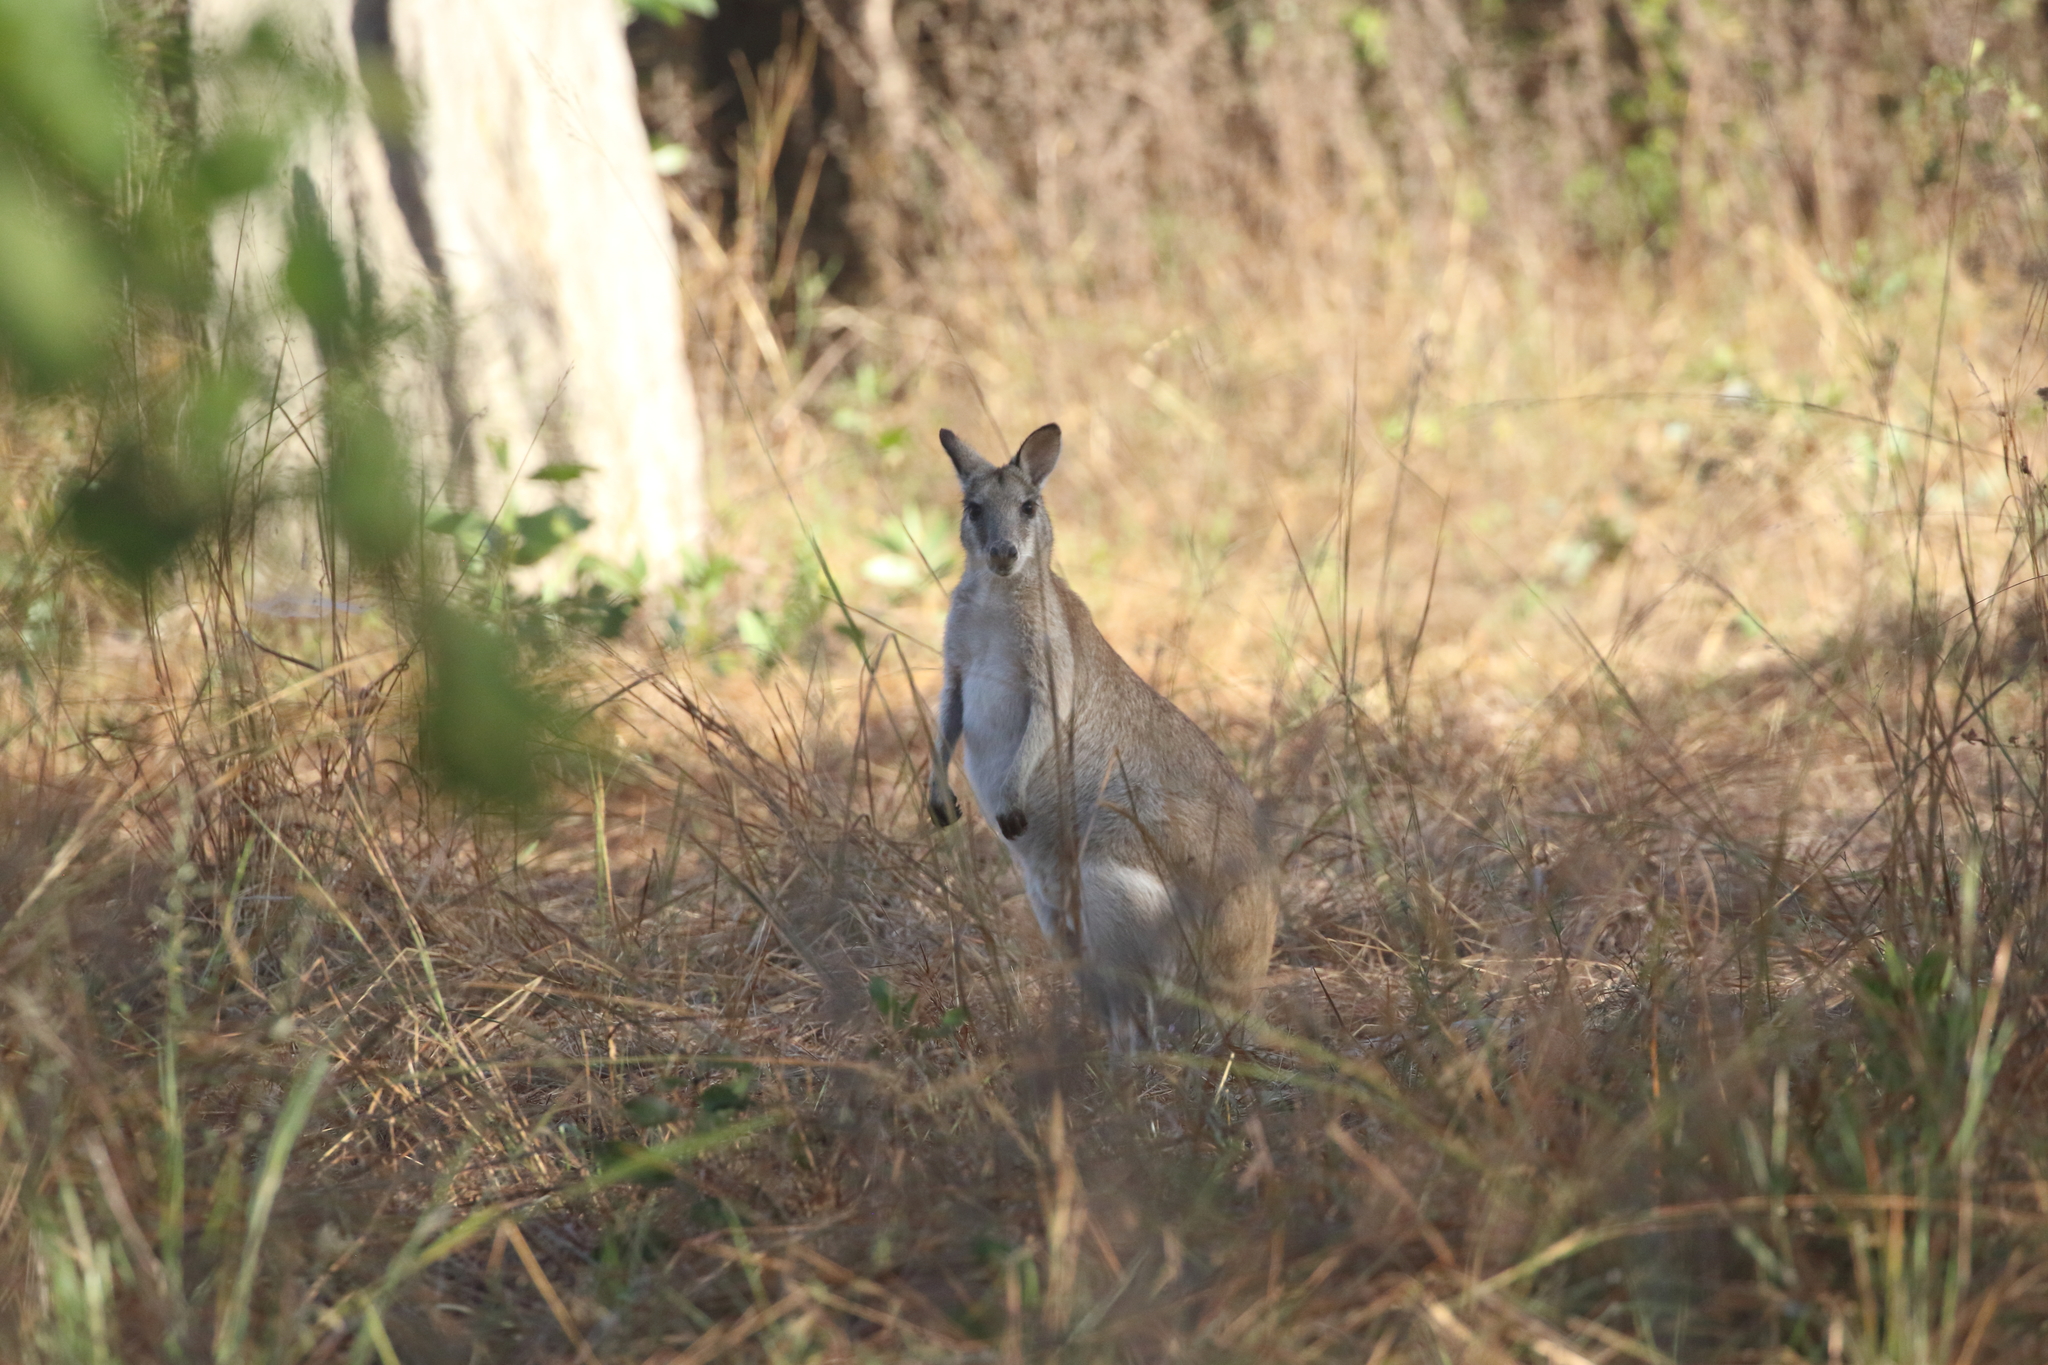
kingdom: Animalia
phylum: Chordata
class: Mammalia
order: Diprotodontia
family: Macropodidae
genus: Macropus
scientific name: Macropus agilis
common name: Agile wallaby
